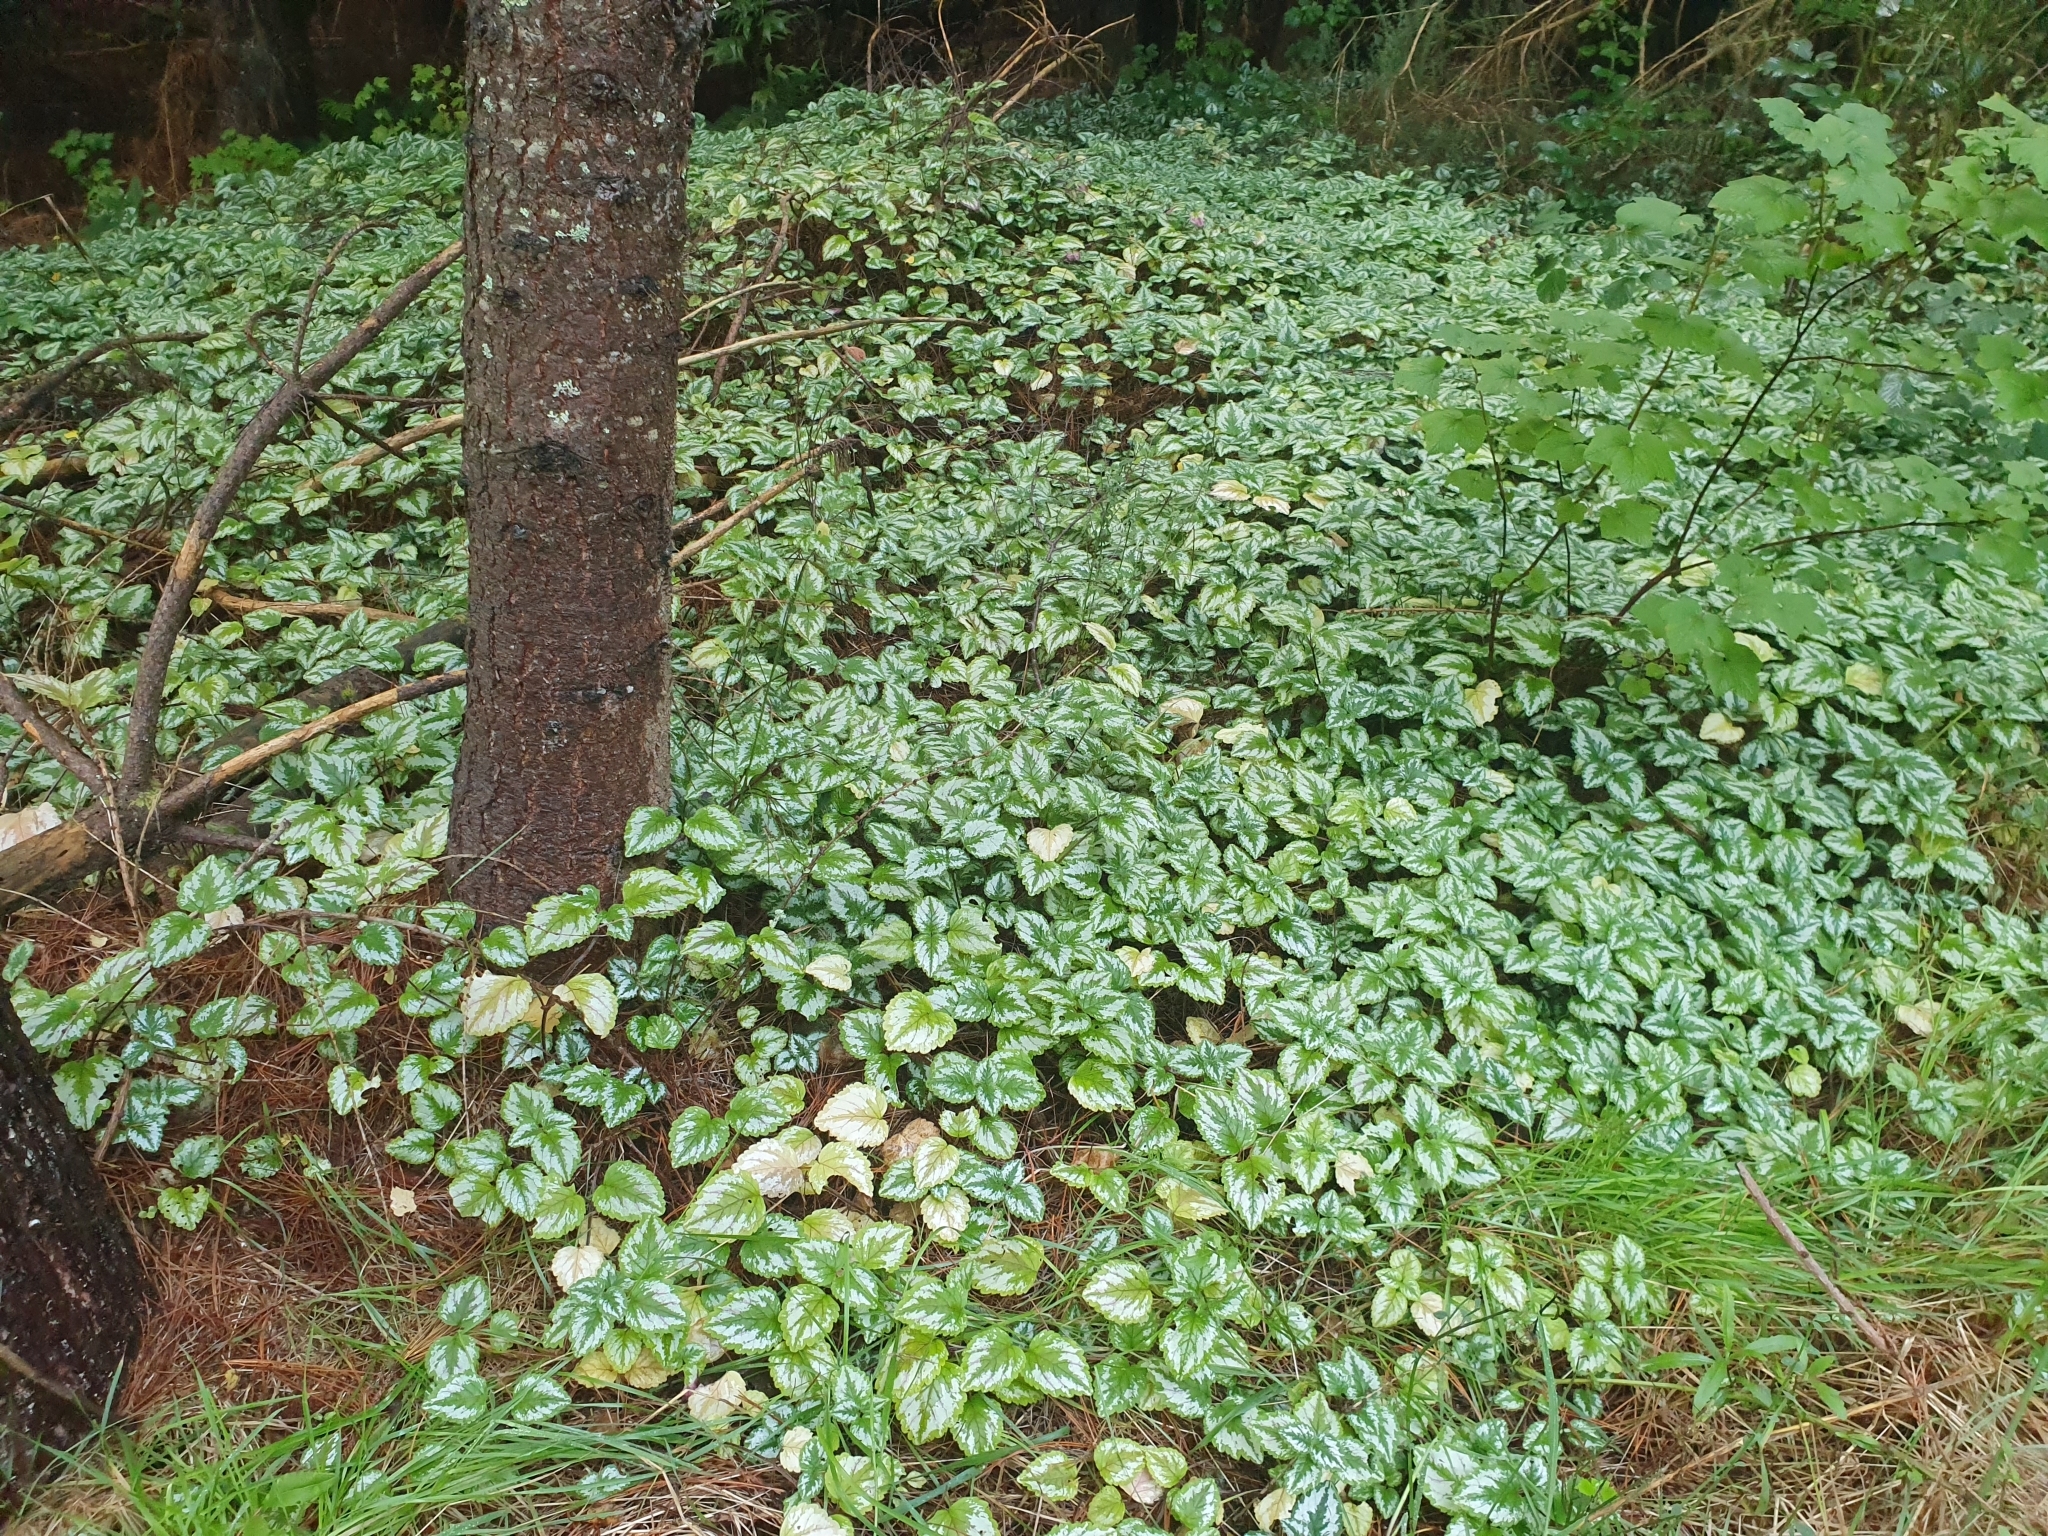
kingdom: Plantae
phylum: Tracheophyta
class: Magnoliopsida
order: Lamiales
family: Lamiaceae
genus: Lamium
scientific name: Lamium galeobdolon
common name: Yellow archangel
